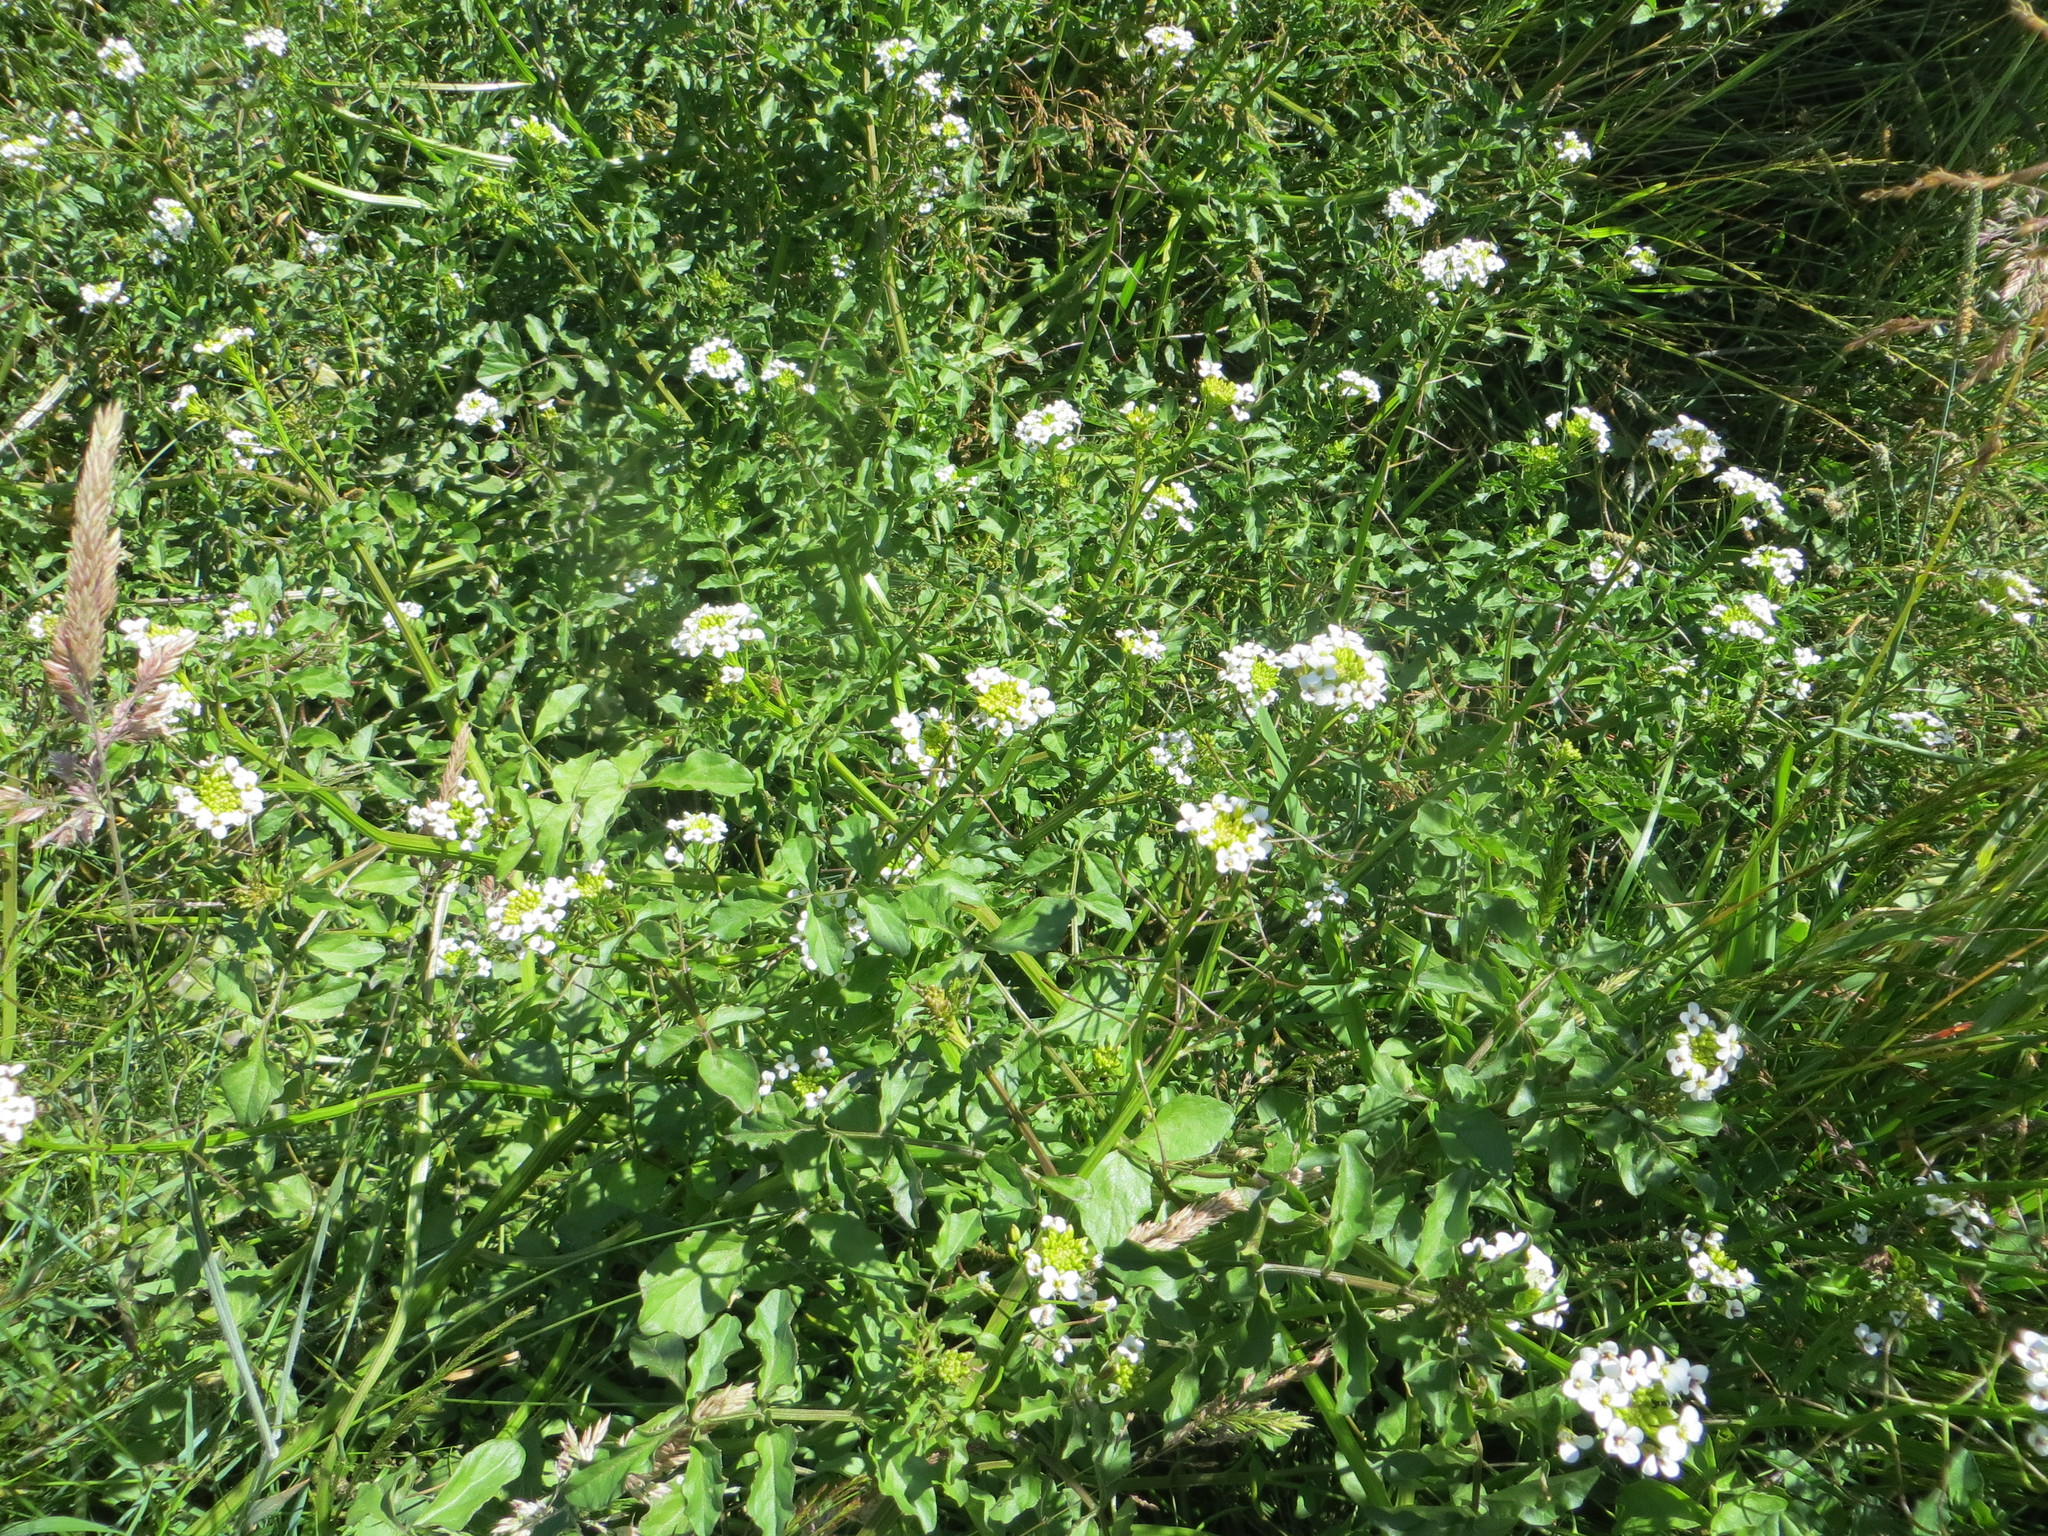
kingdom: Plantae
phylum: Tracheophyta
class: Magnoliopsida
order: Brassicales
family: Brassicaceae
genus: Nasturtium
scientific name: Nasturtium officinale
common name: Watercress
